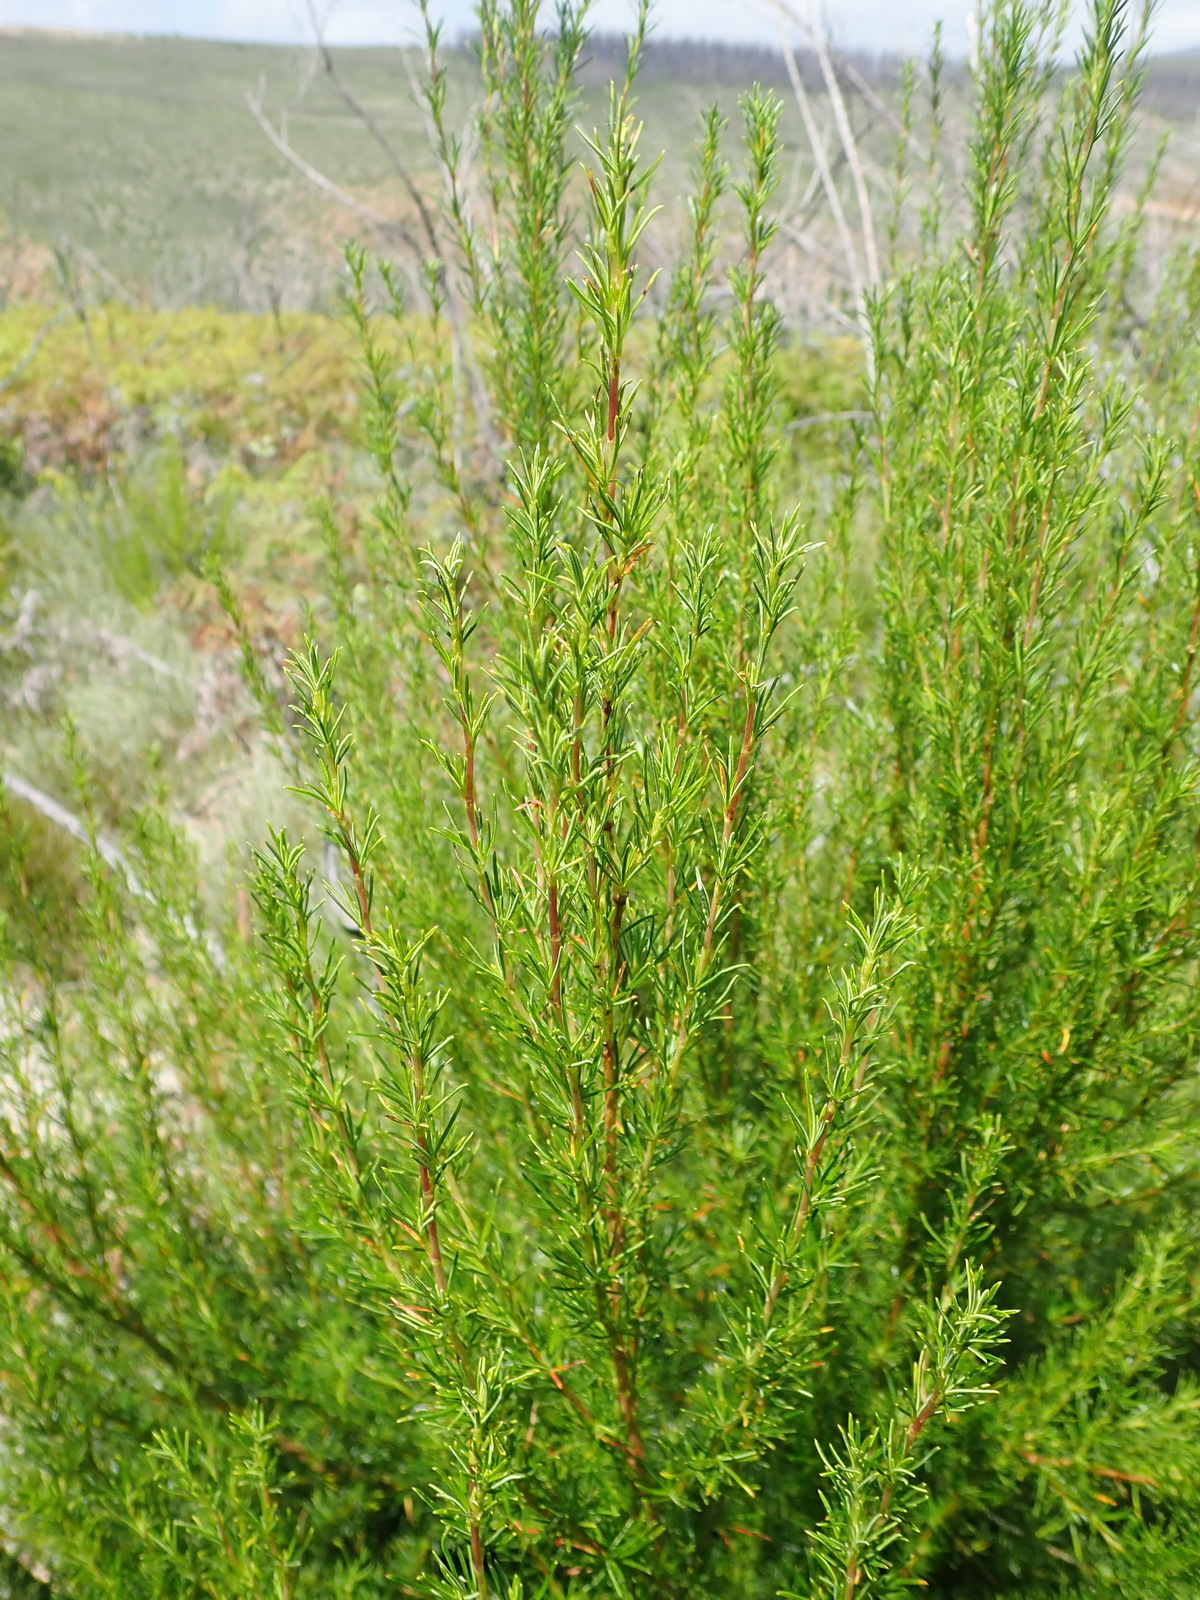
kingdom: Plantae
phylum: Tracheophyta
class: Magnoliopsida
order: Rosales
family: Rosaceae
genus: Cliffortia
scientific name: Cliffortia burchellii
